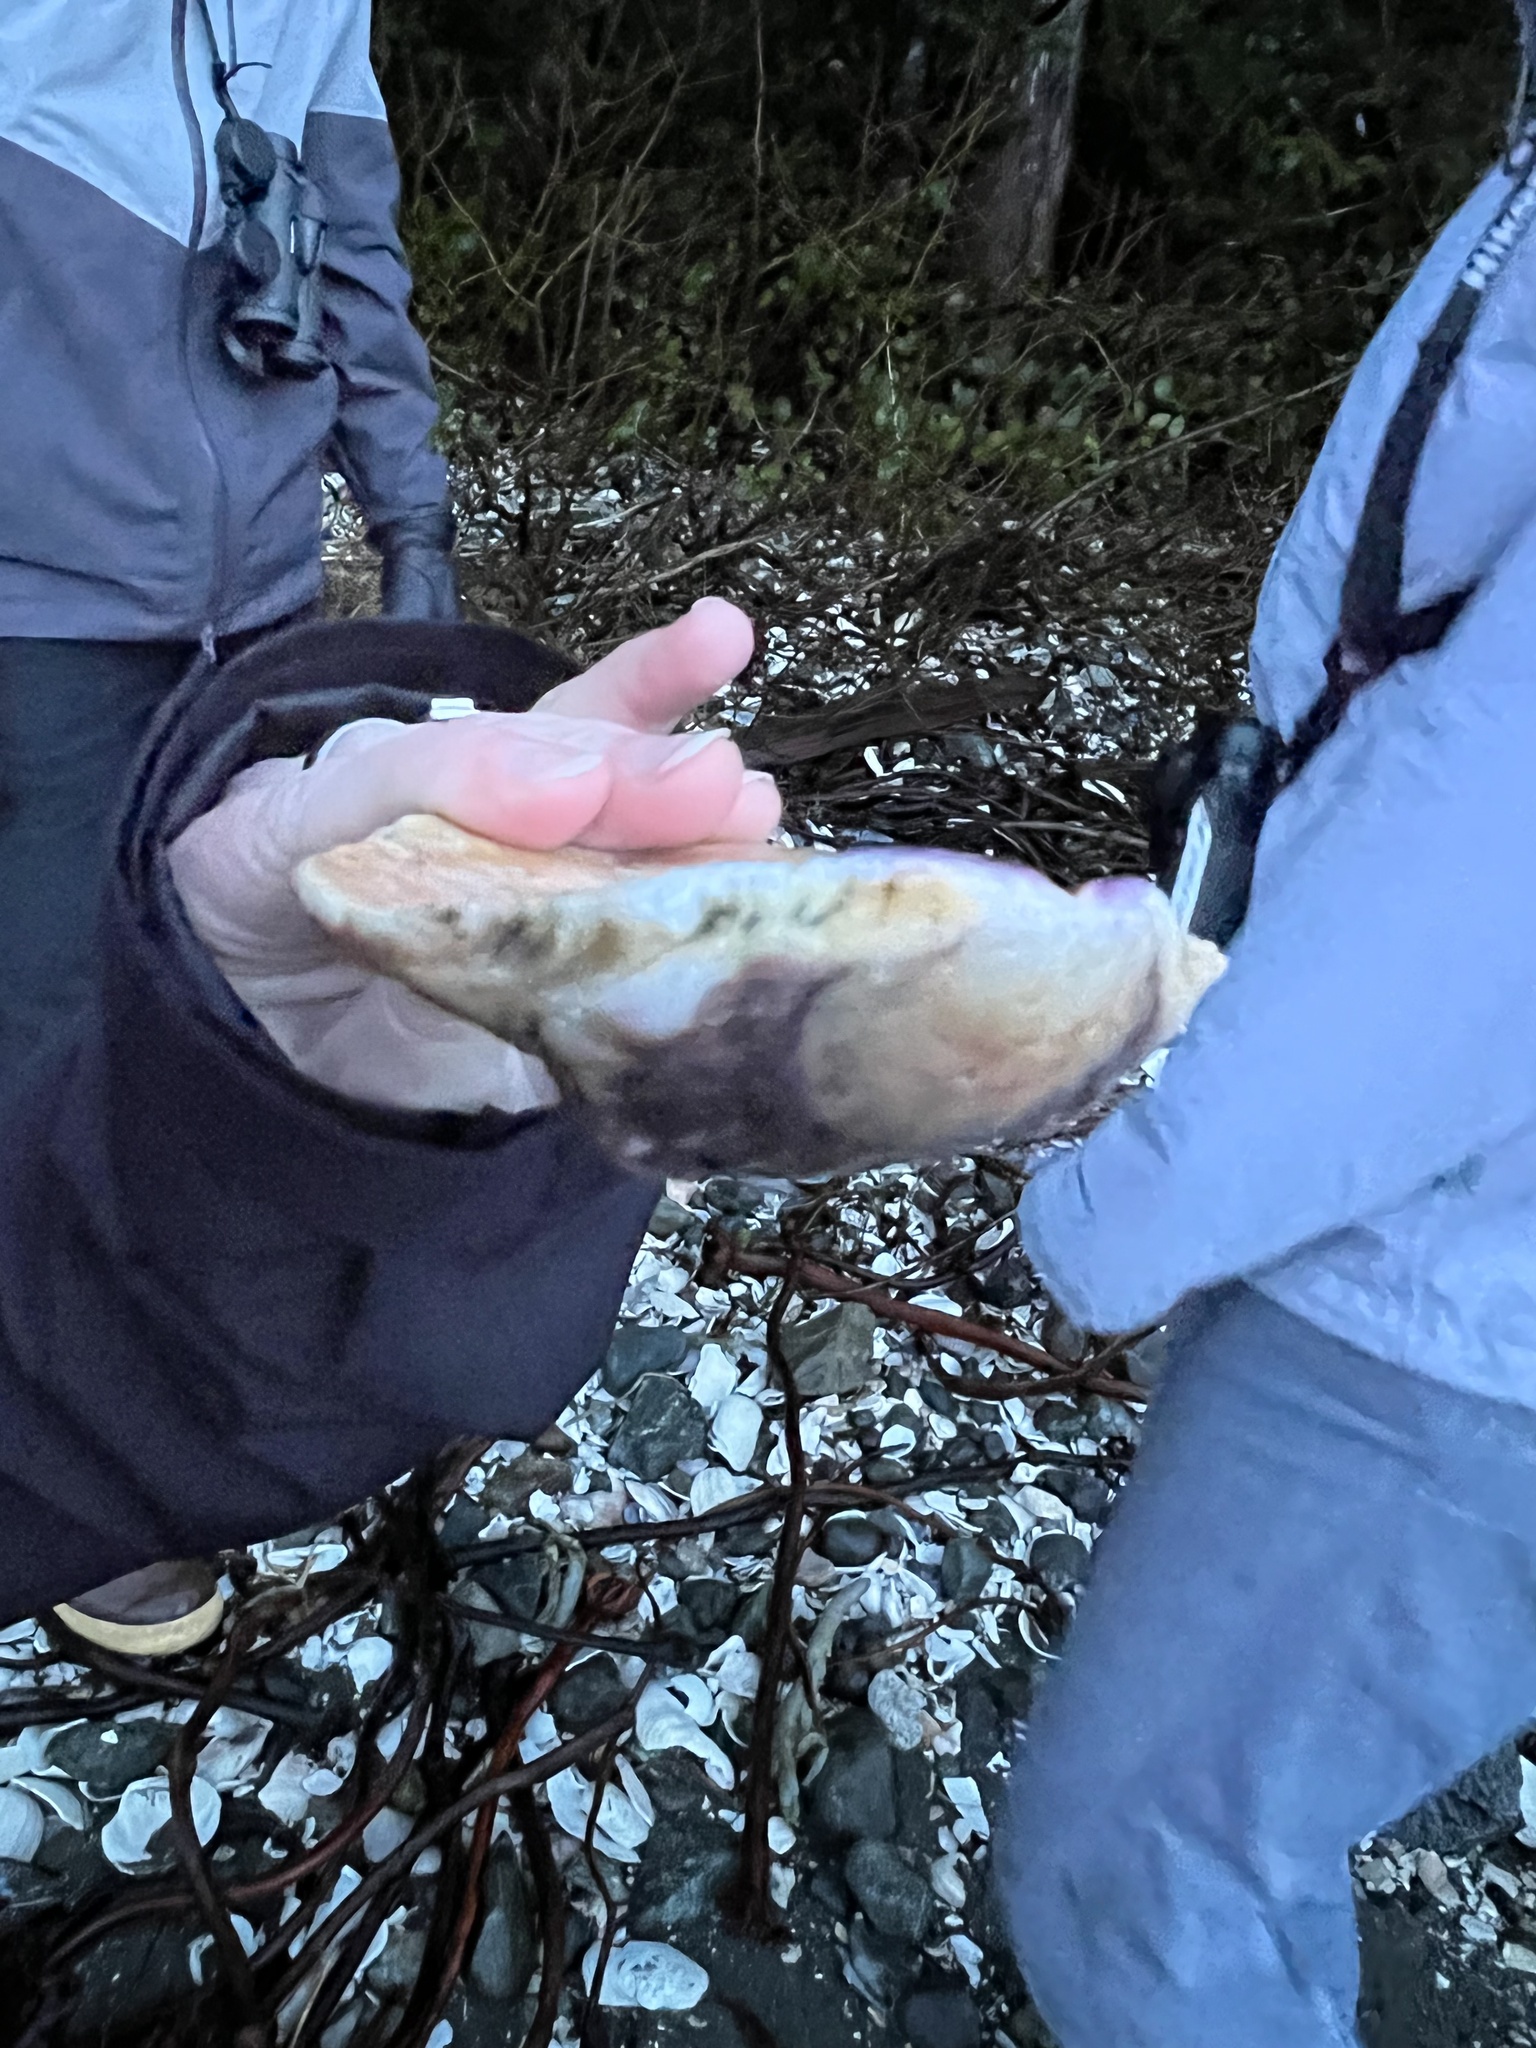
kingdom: Animalia
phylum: Mollusca
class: Bivalvia
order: Pectinida
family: Pectinidae
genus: Crassadoma
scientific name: Crassadoma gigantea
